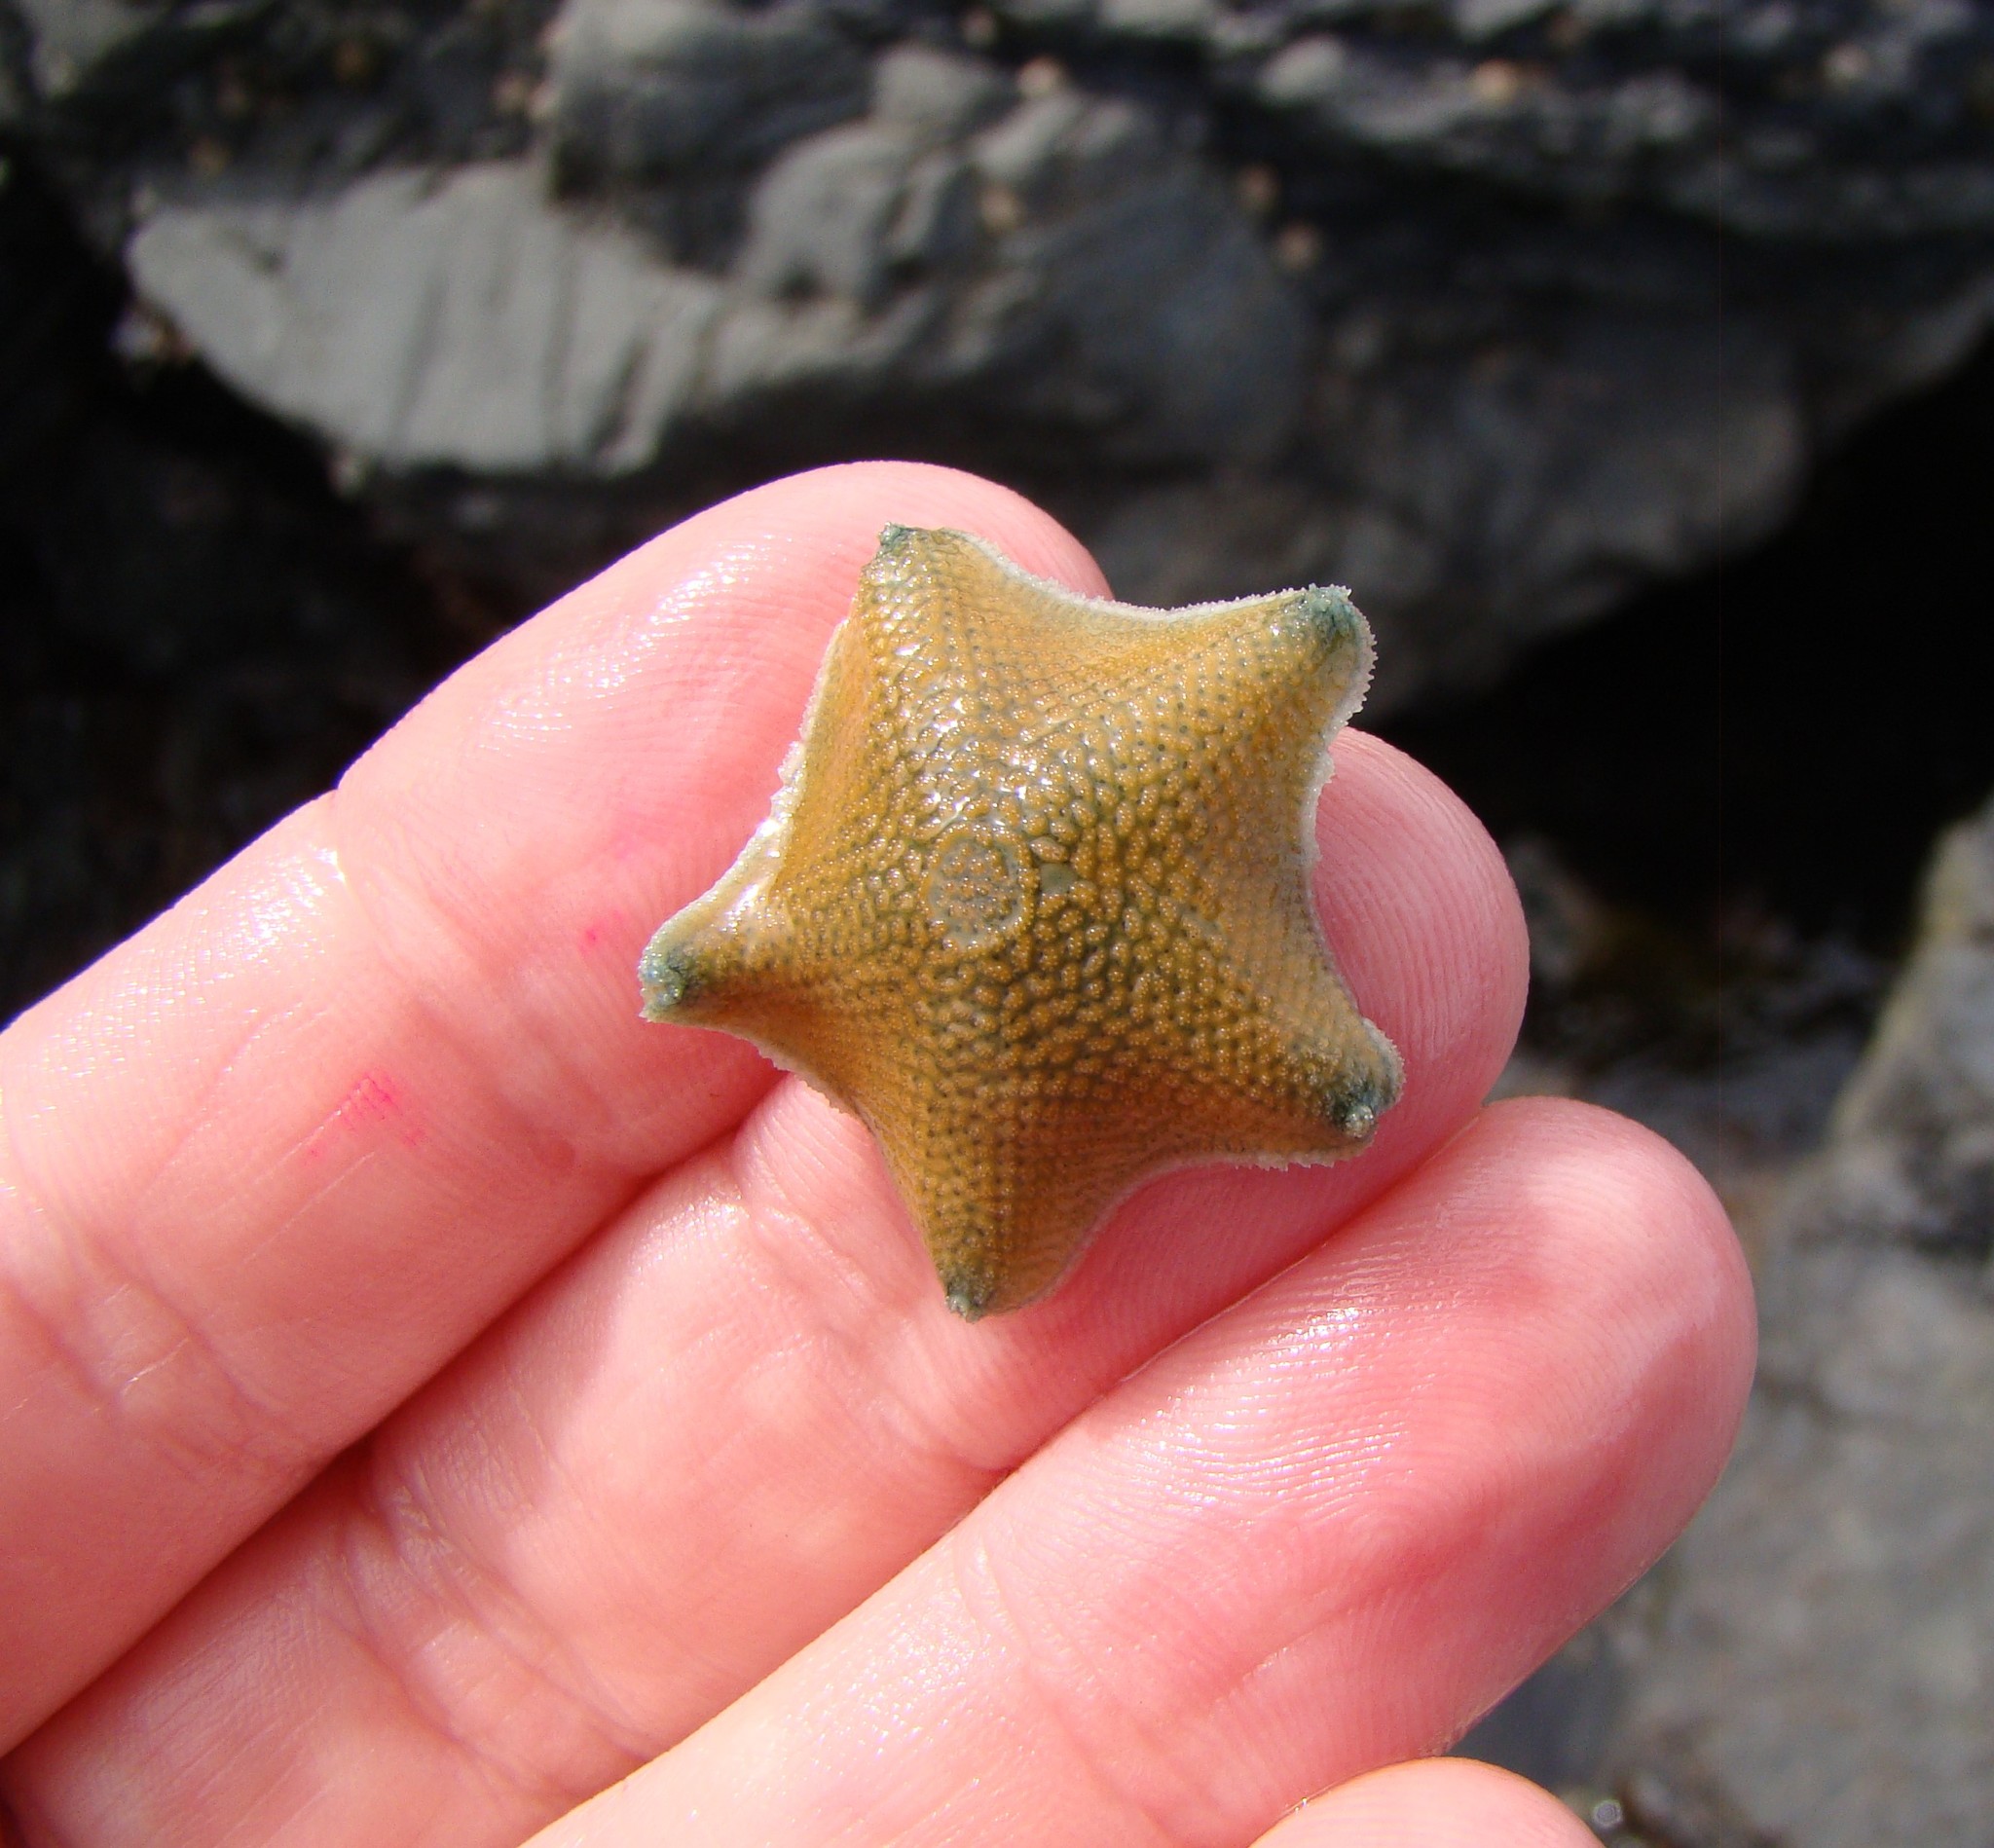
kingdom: Animalia
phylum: Echinodermata
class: Asteroidea
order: Valvatida
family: Asterinidae
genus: Patiriella
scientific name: Patiriella regularis
